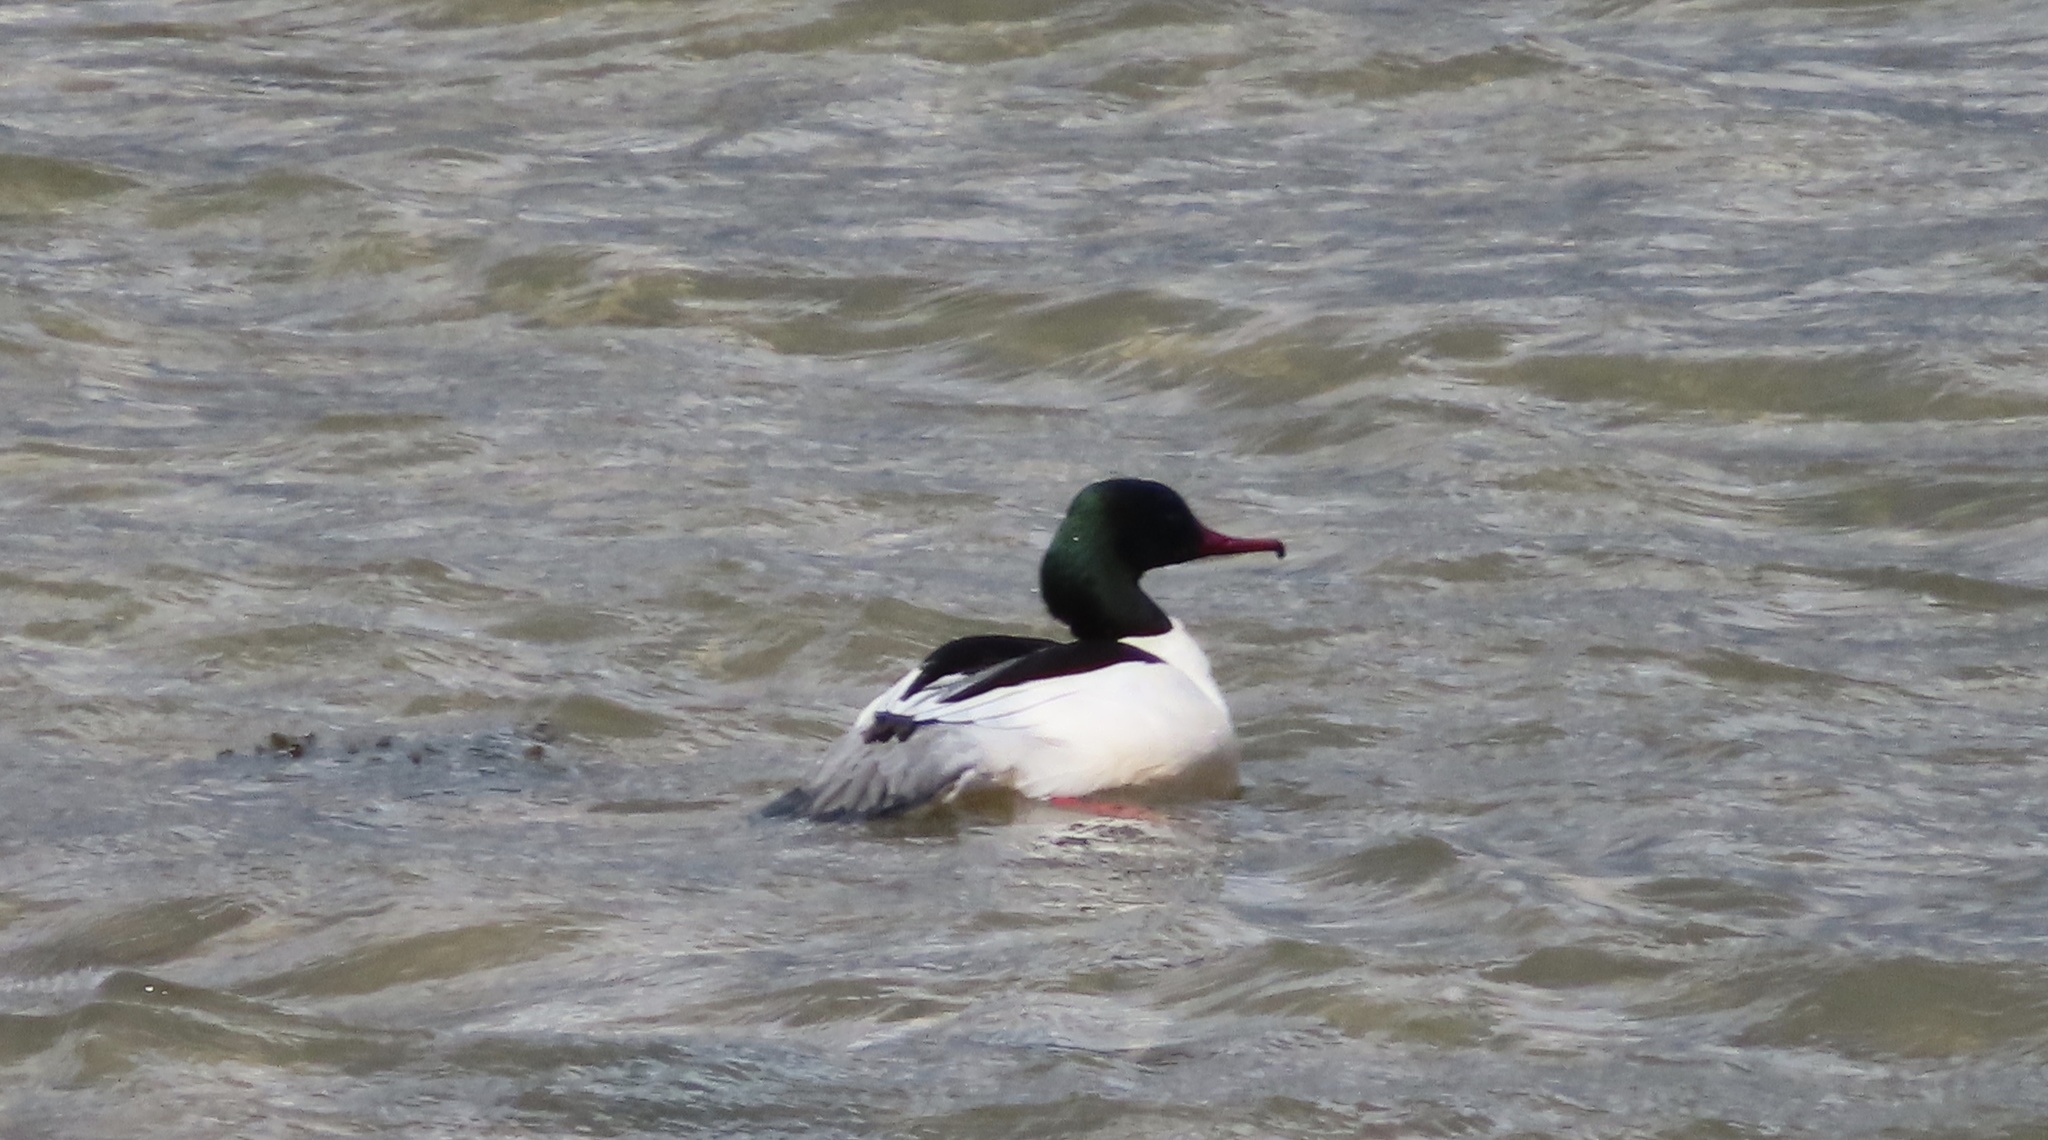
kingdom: Animalia
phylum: Chordata
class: Aves
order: Anseriformes
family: Anatidae
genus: Mergus
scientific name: Mergus merganser
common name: Common merganser
